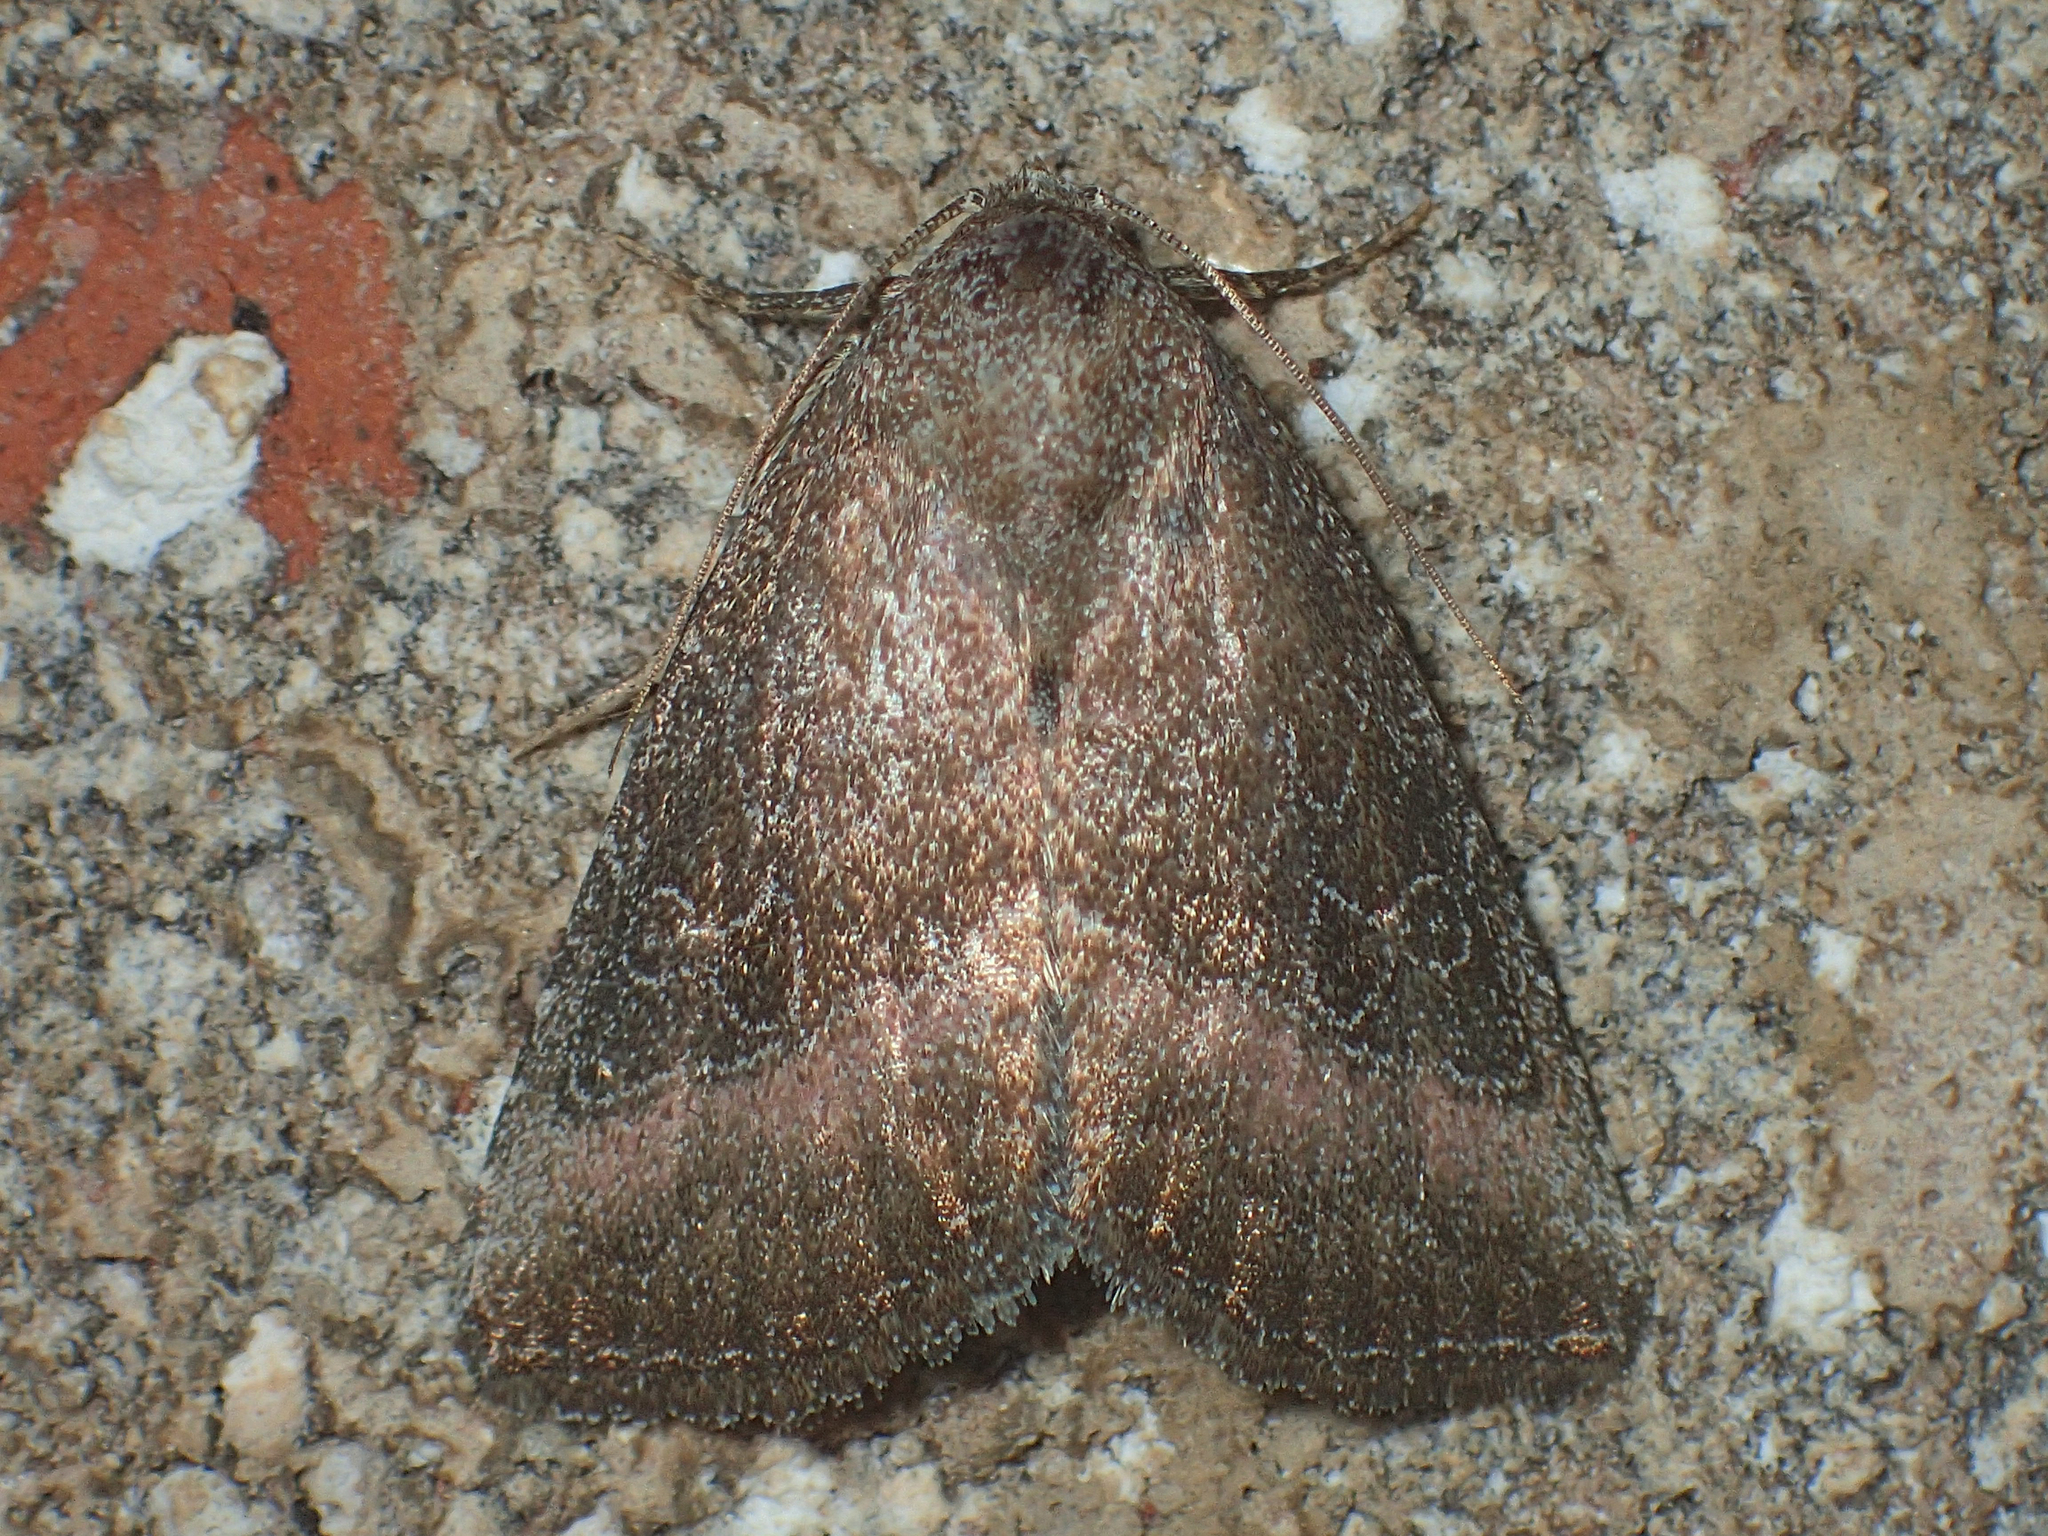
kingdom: Animalia
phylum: Arthropoda
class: Insecta
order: Lepidoptera
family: Noctuidae
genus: Ogdoconta
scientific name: Ogdoconta cinereola
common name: Common pinkband
